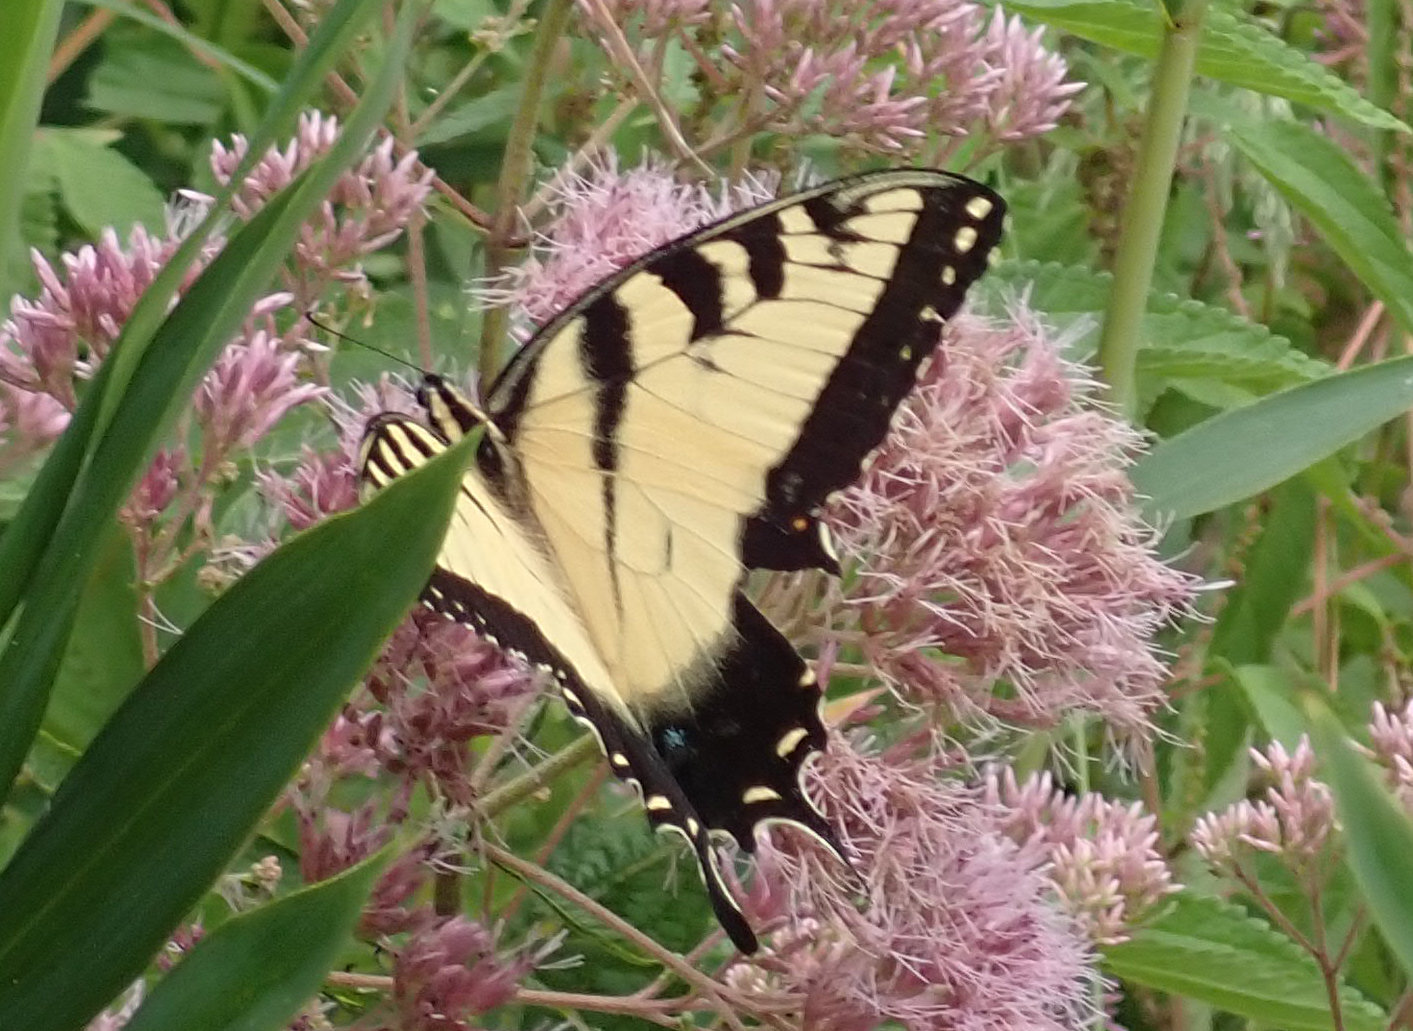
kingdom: Animalia
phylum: Arthropoda
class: Insecta
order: Lepidoptera
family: Papilionidae
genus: Papilio
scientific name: Papilio glaucus
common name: Tiger swallowtail
